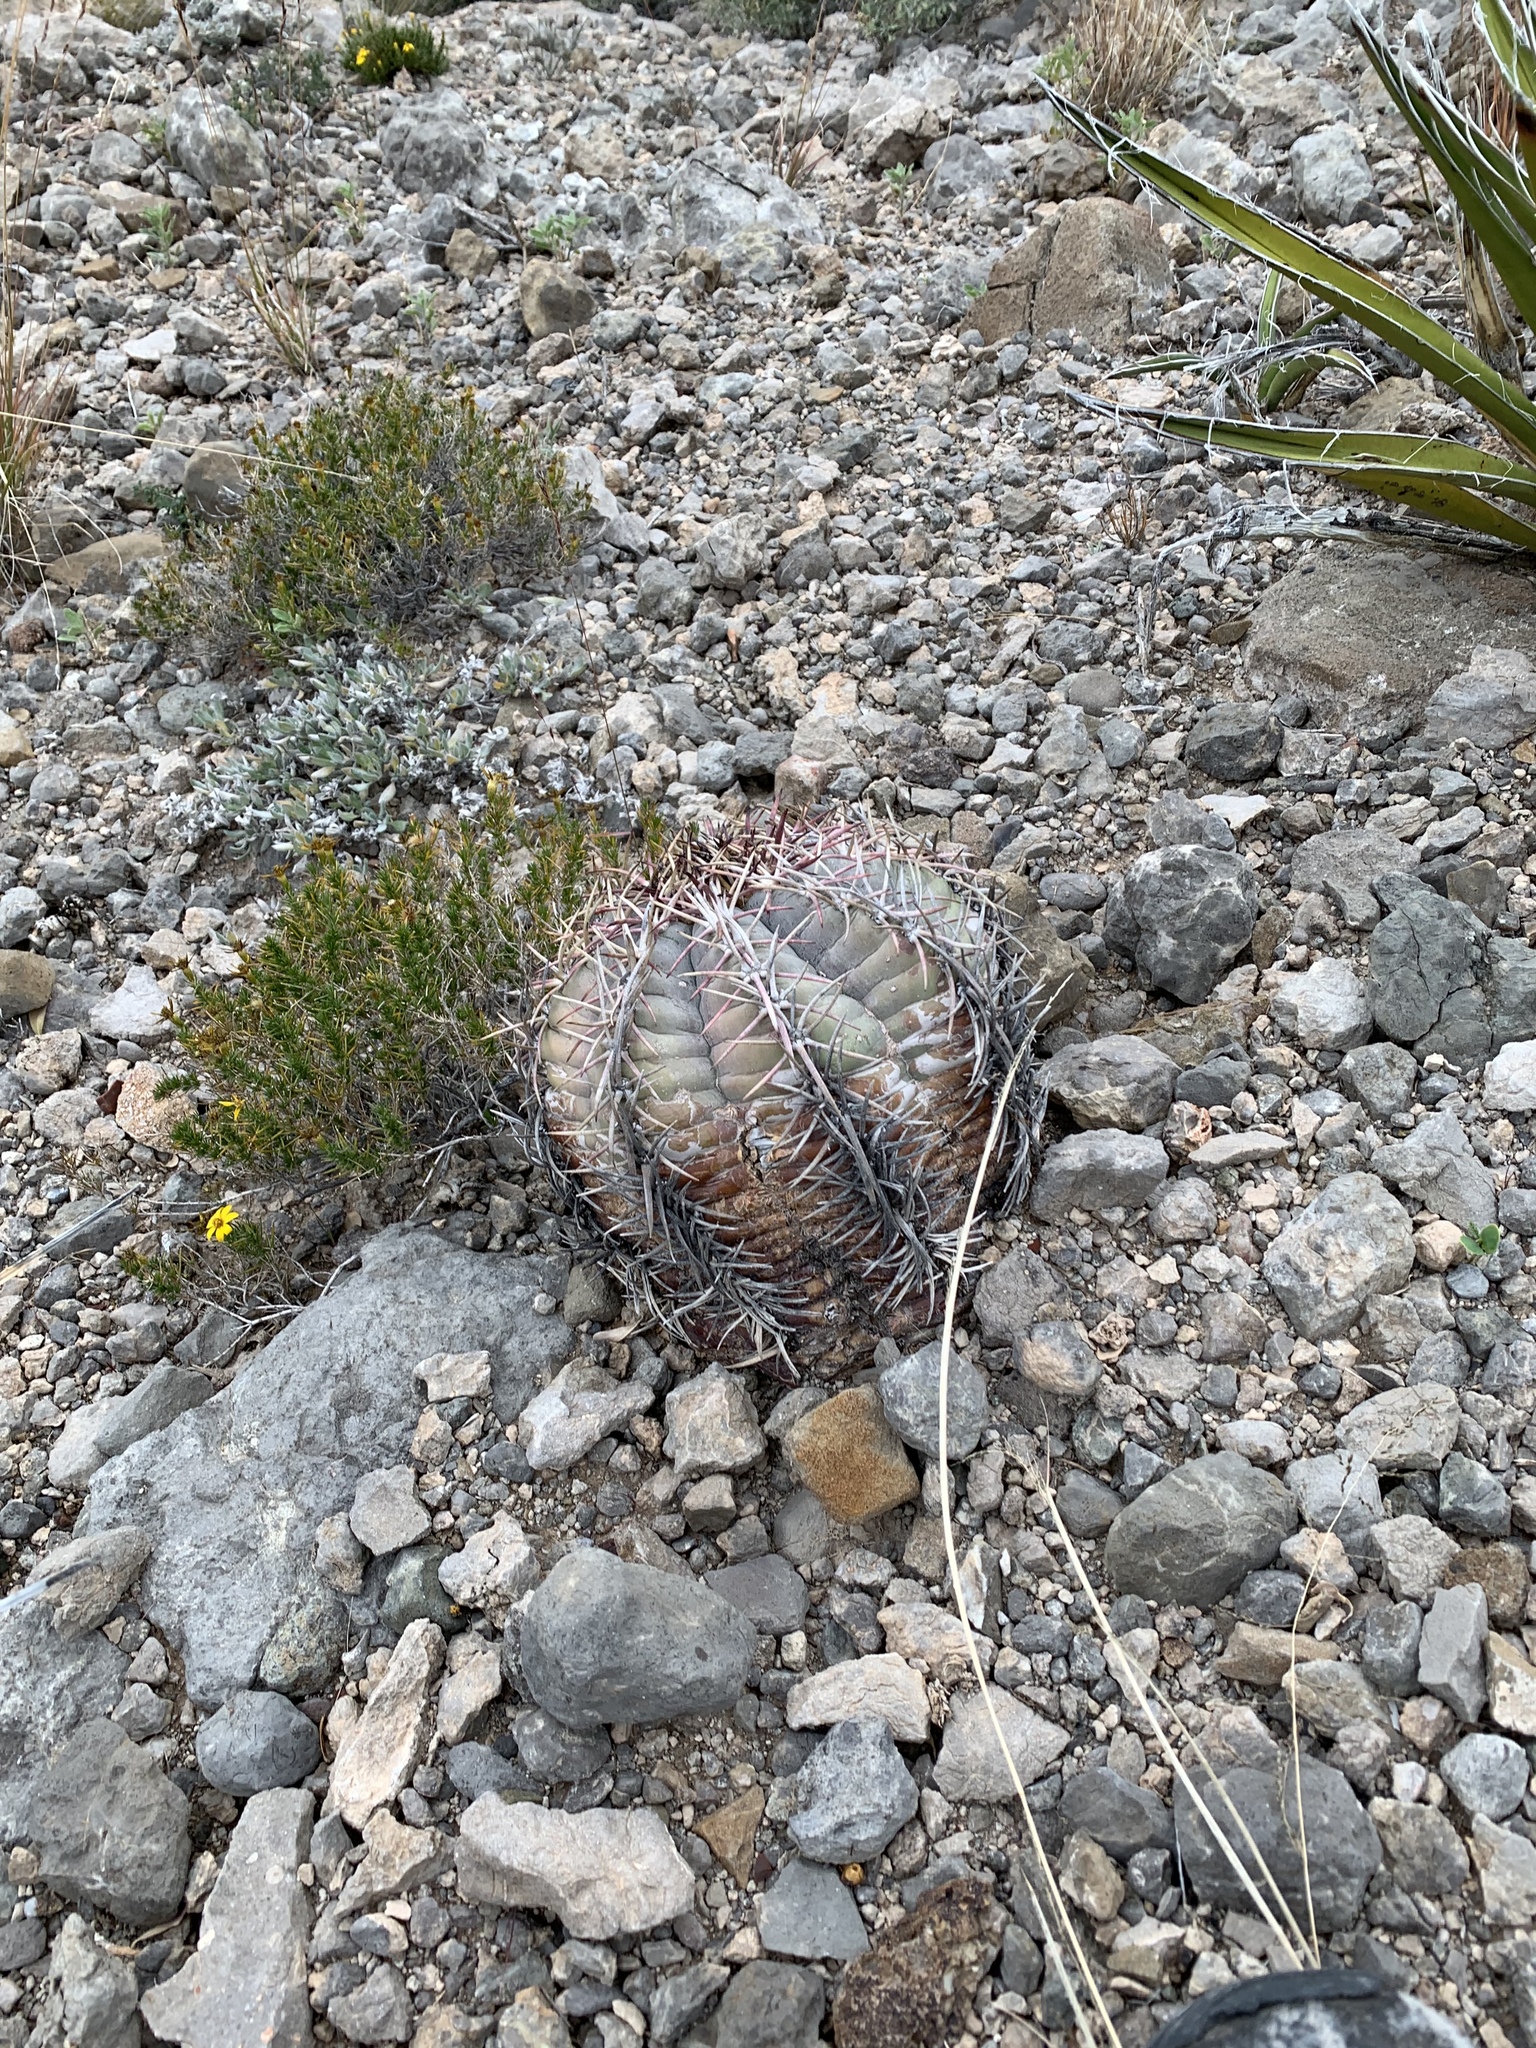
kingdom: Plantae
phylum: Tracheophyta
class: Magnoliopsida
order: Caryophyllales
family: Cactaceae
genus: Echinocactus
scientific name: Echinocactus horizonthalonius
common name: Devilshead
